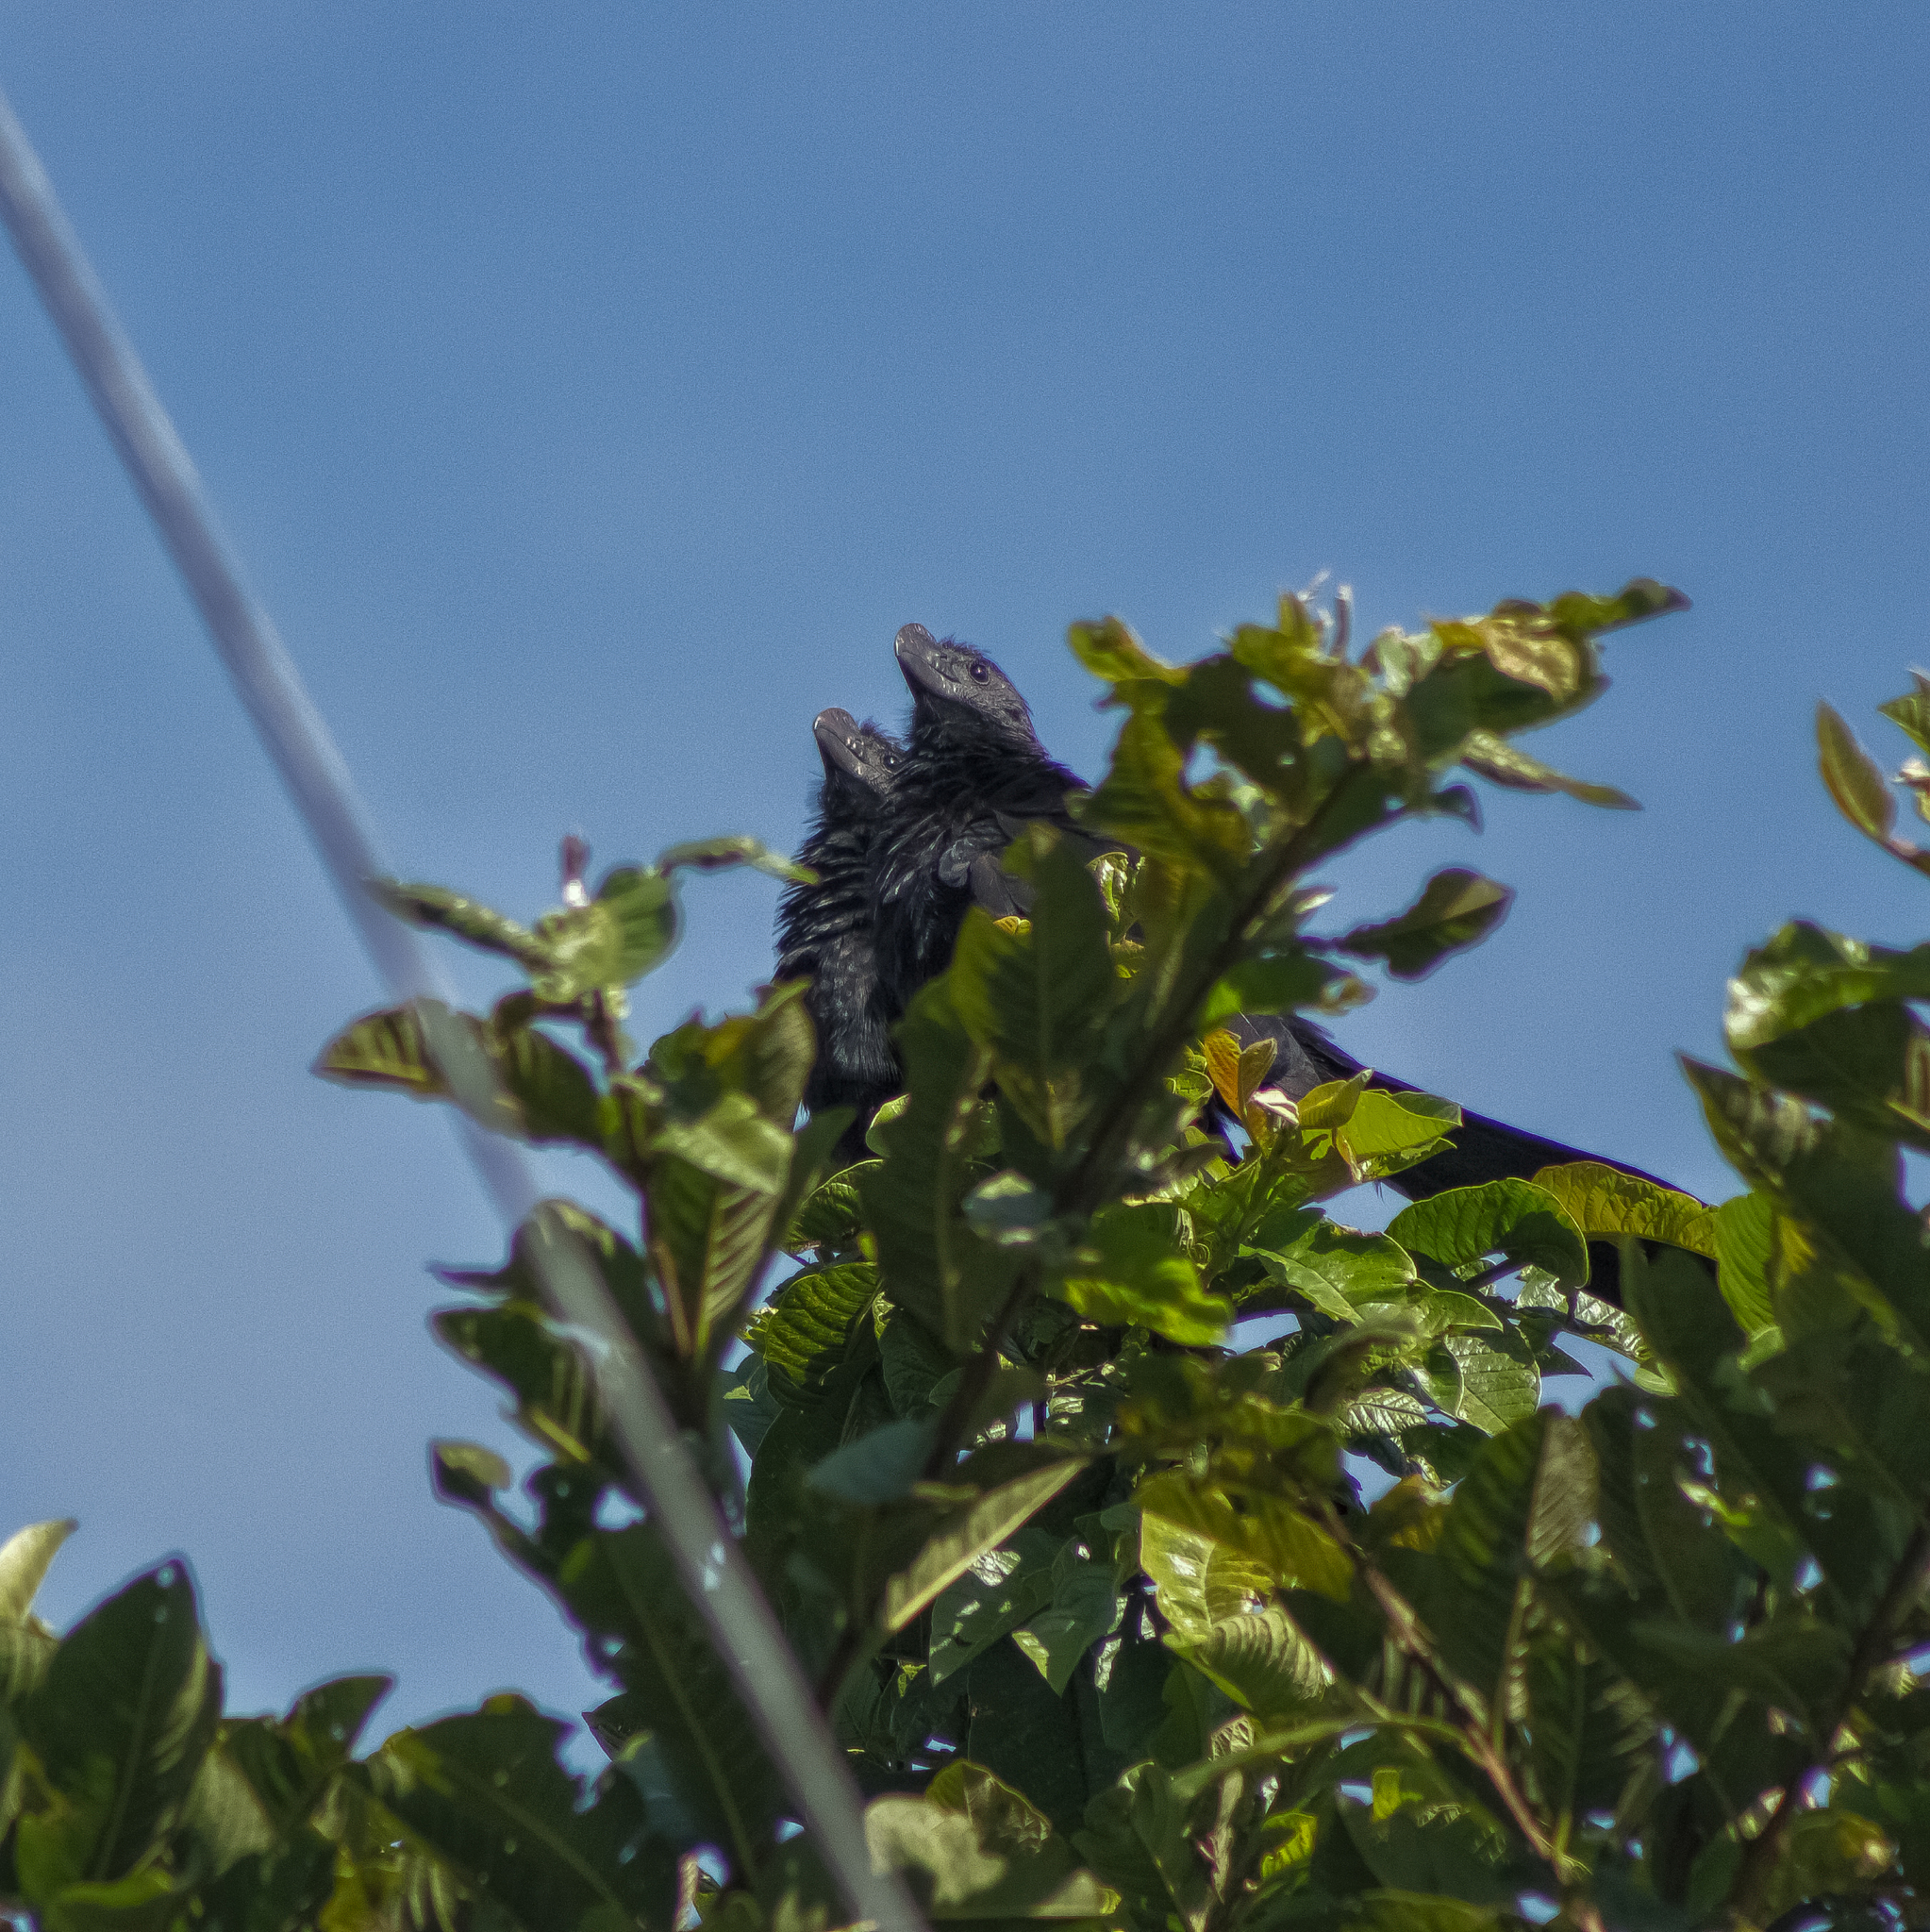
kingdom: Animalia
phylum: Chordata
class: Aves
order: Cuculiformes
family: Cuculidae
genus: Crotophaga
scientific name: Crotophaga ani
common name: Smooth-billed ani
